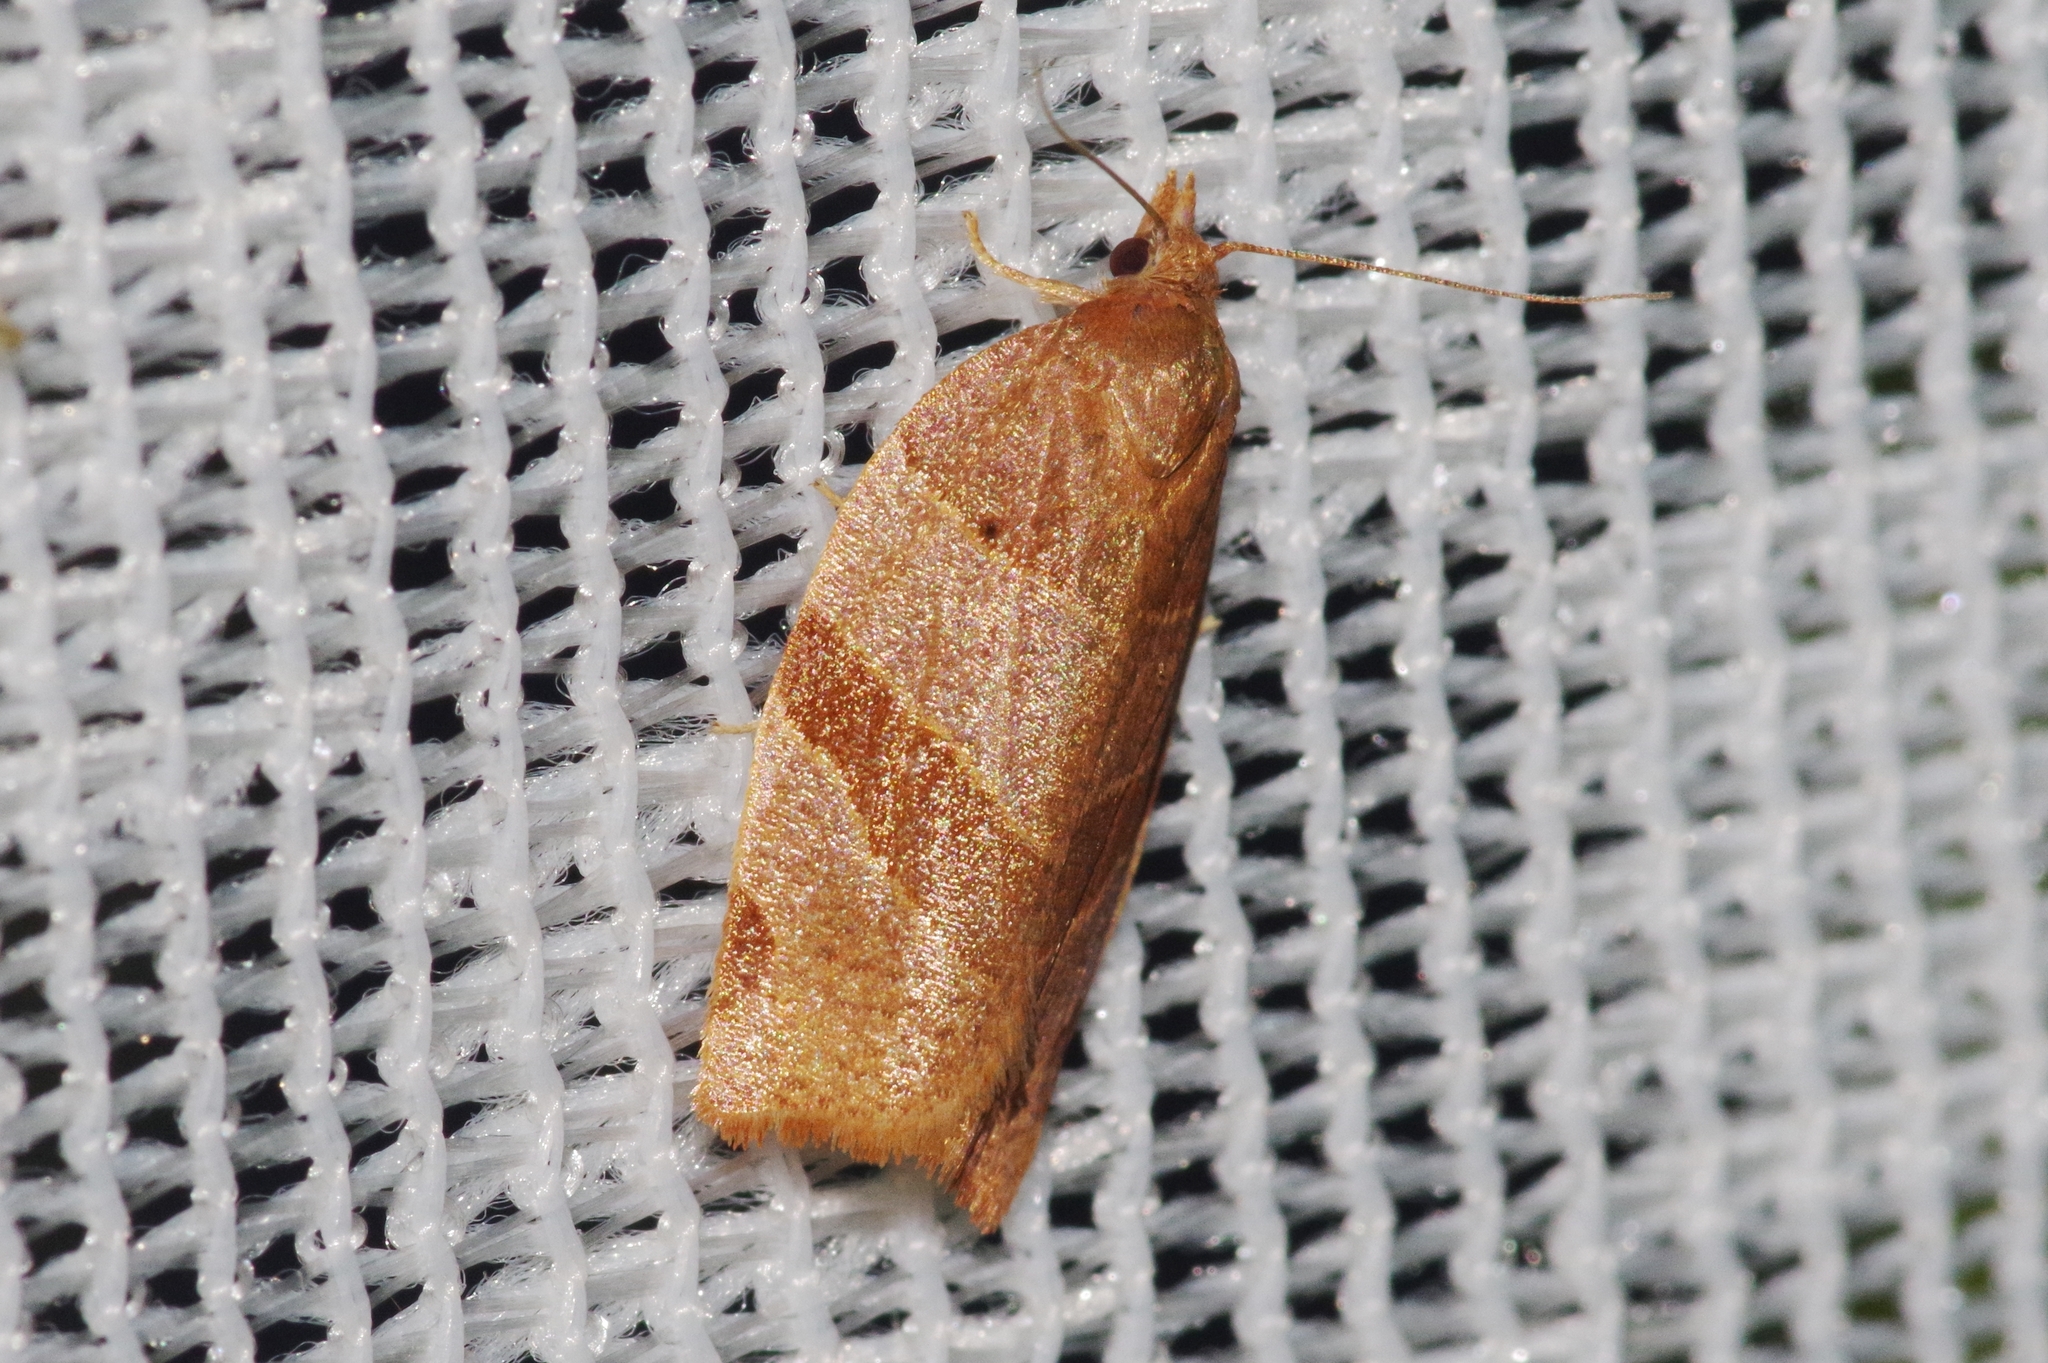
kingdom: Animalia
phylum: Arthropoda
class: Insecta
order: Lepidoptera
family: Tortricidae
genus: Pandemis
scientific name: Pandemis cinnamomeana
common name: White-faced twist
